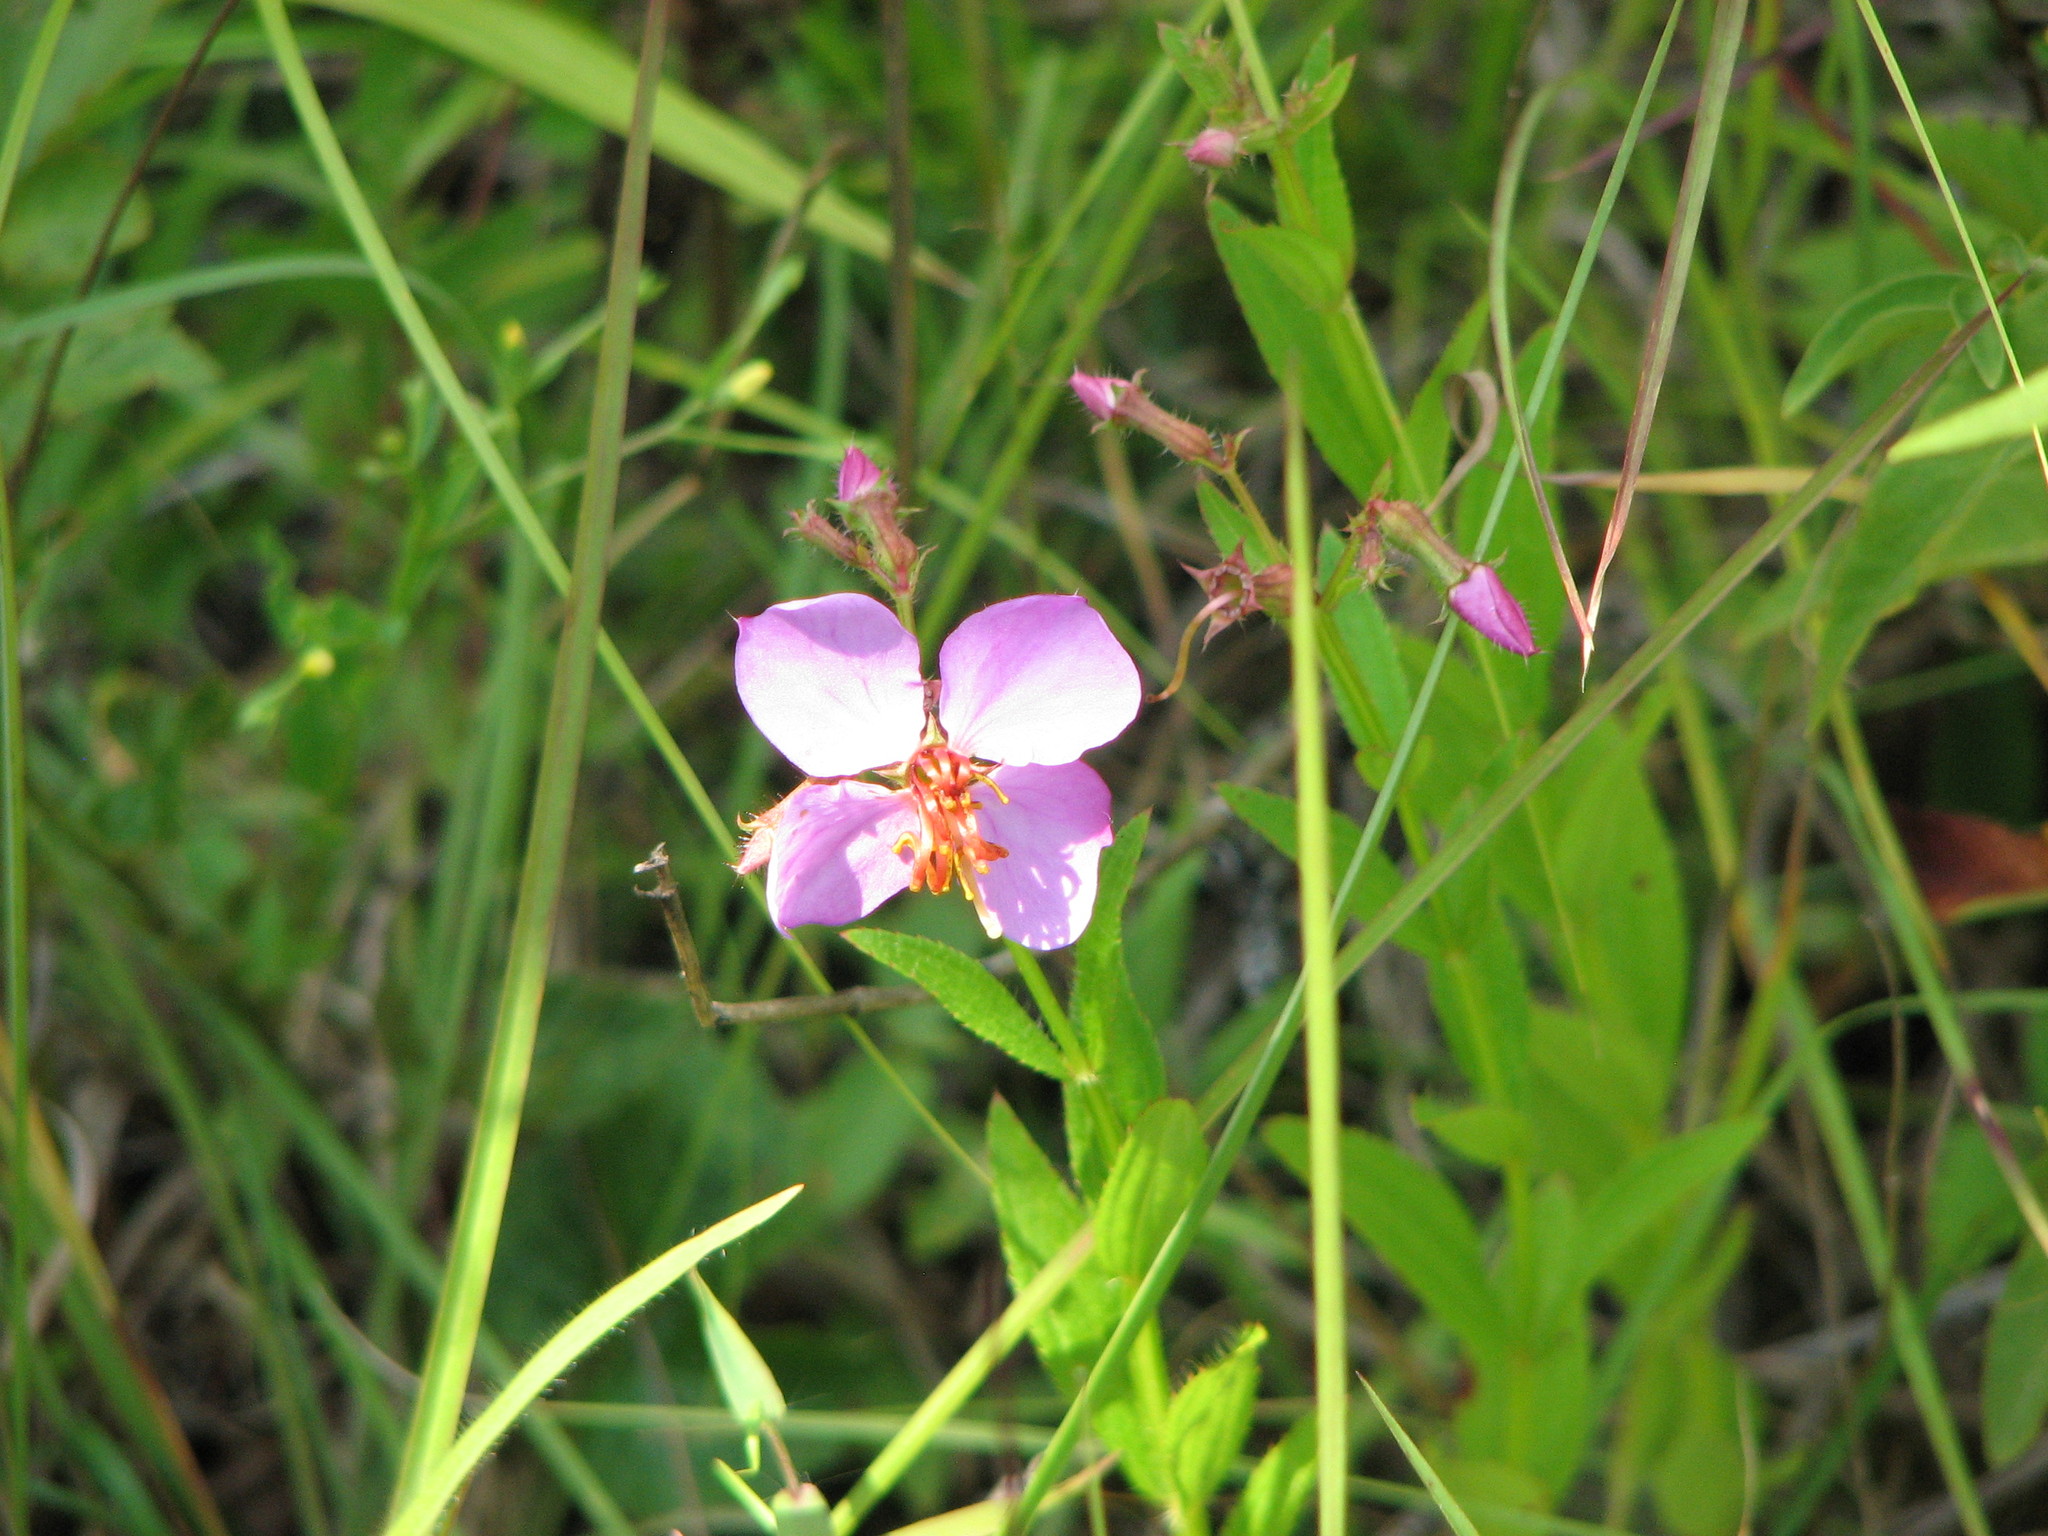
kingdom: Plantae
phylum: Tracheophyta
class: Magnoliopsida
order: Myrtales
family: Melastomataceae
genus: Rhexia
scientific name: Rhexia virginica
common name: Common meadow beauty
